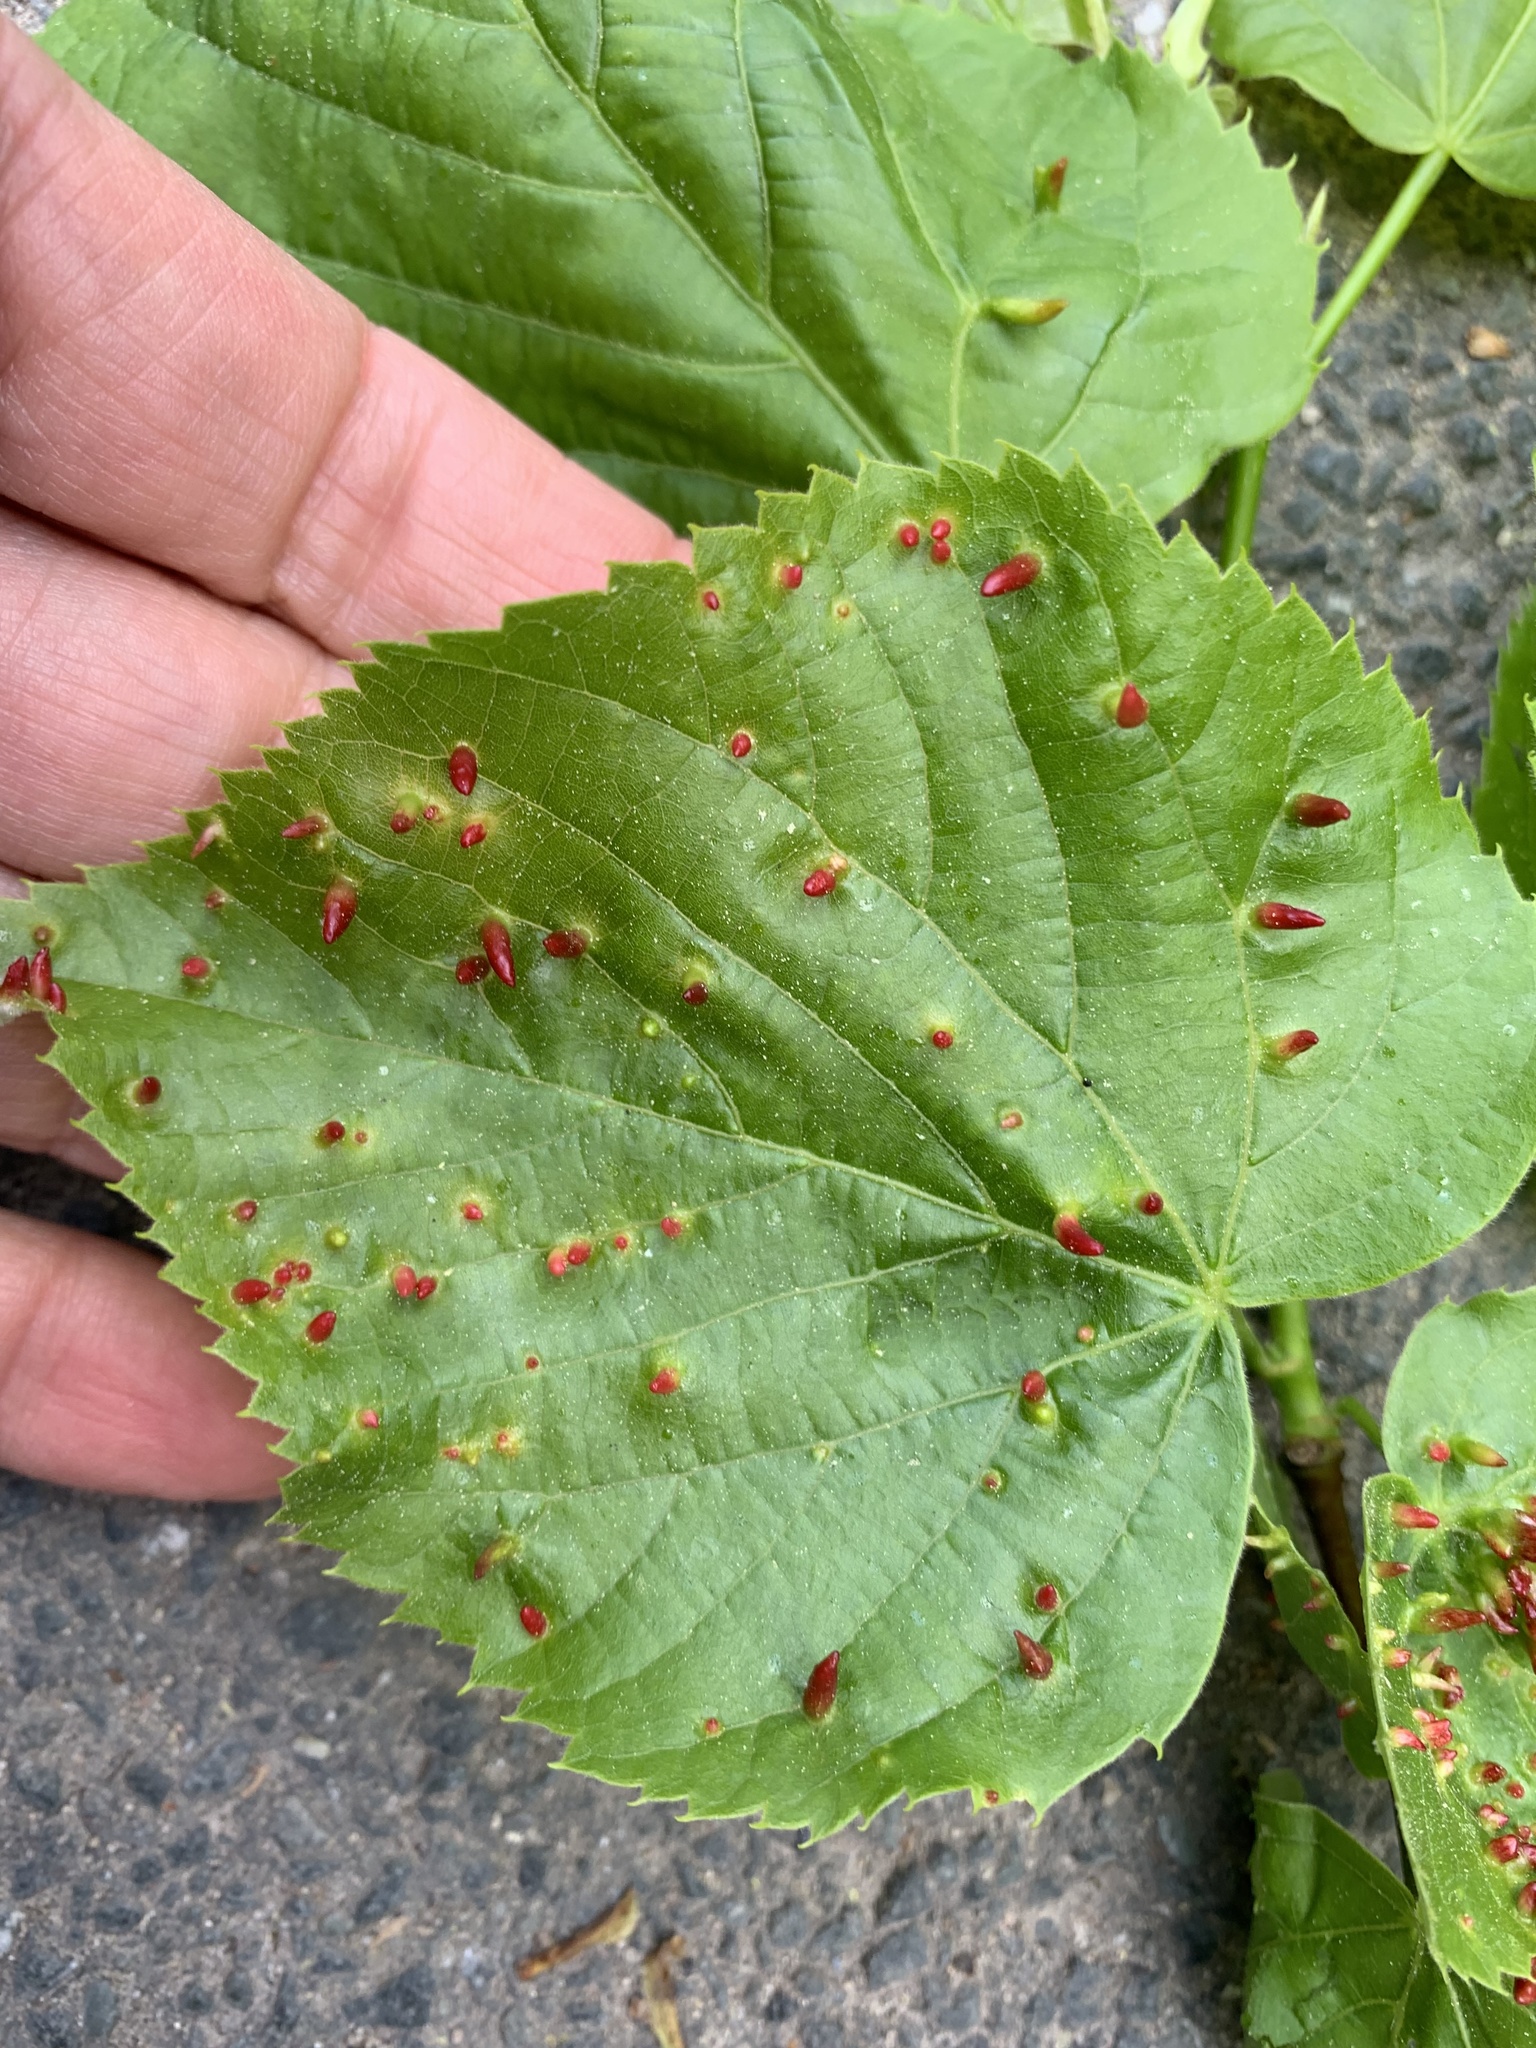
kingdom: Animalia
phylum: Arthropoda
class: Arachnida
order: Trombidiformes
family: Eriophyidae
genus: Eriophyes
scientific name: Eriophyes tiliae
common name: Red nail gall mite
